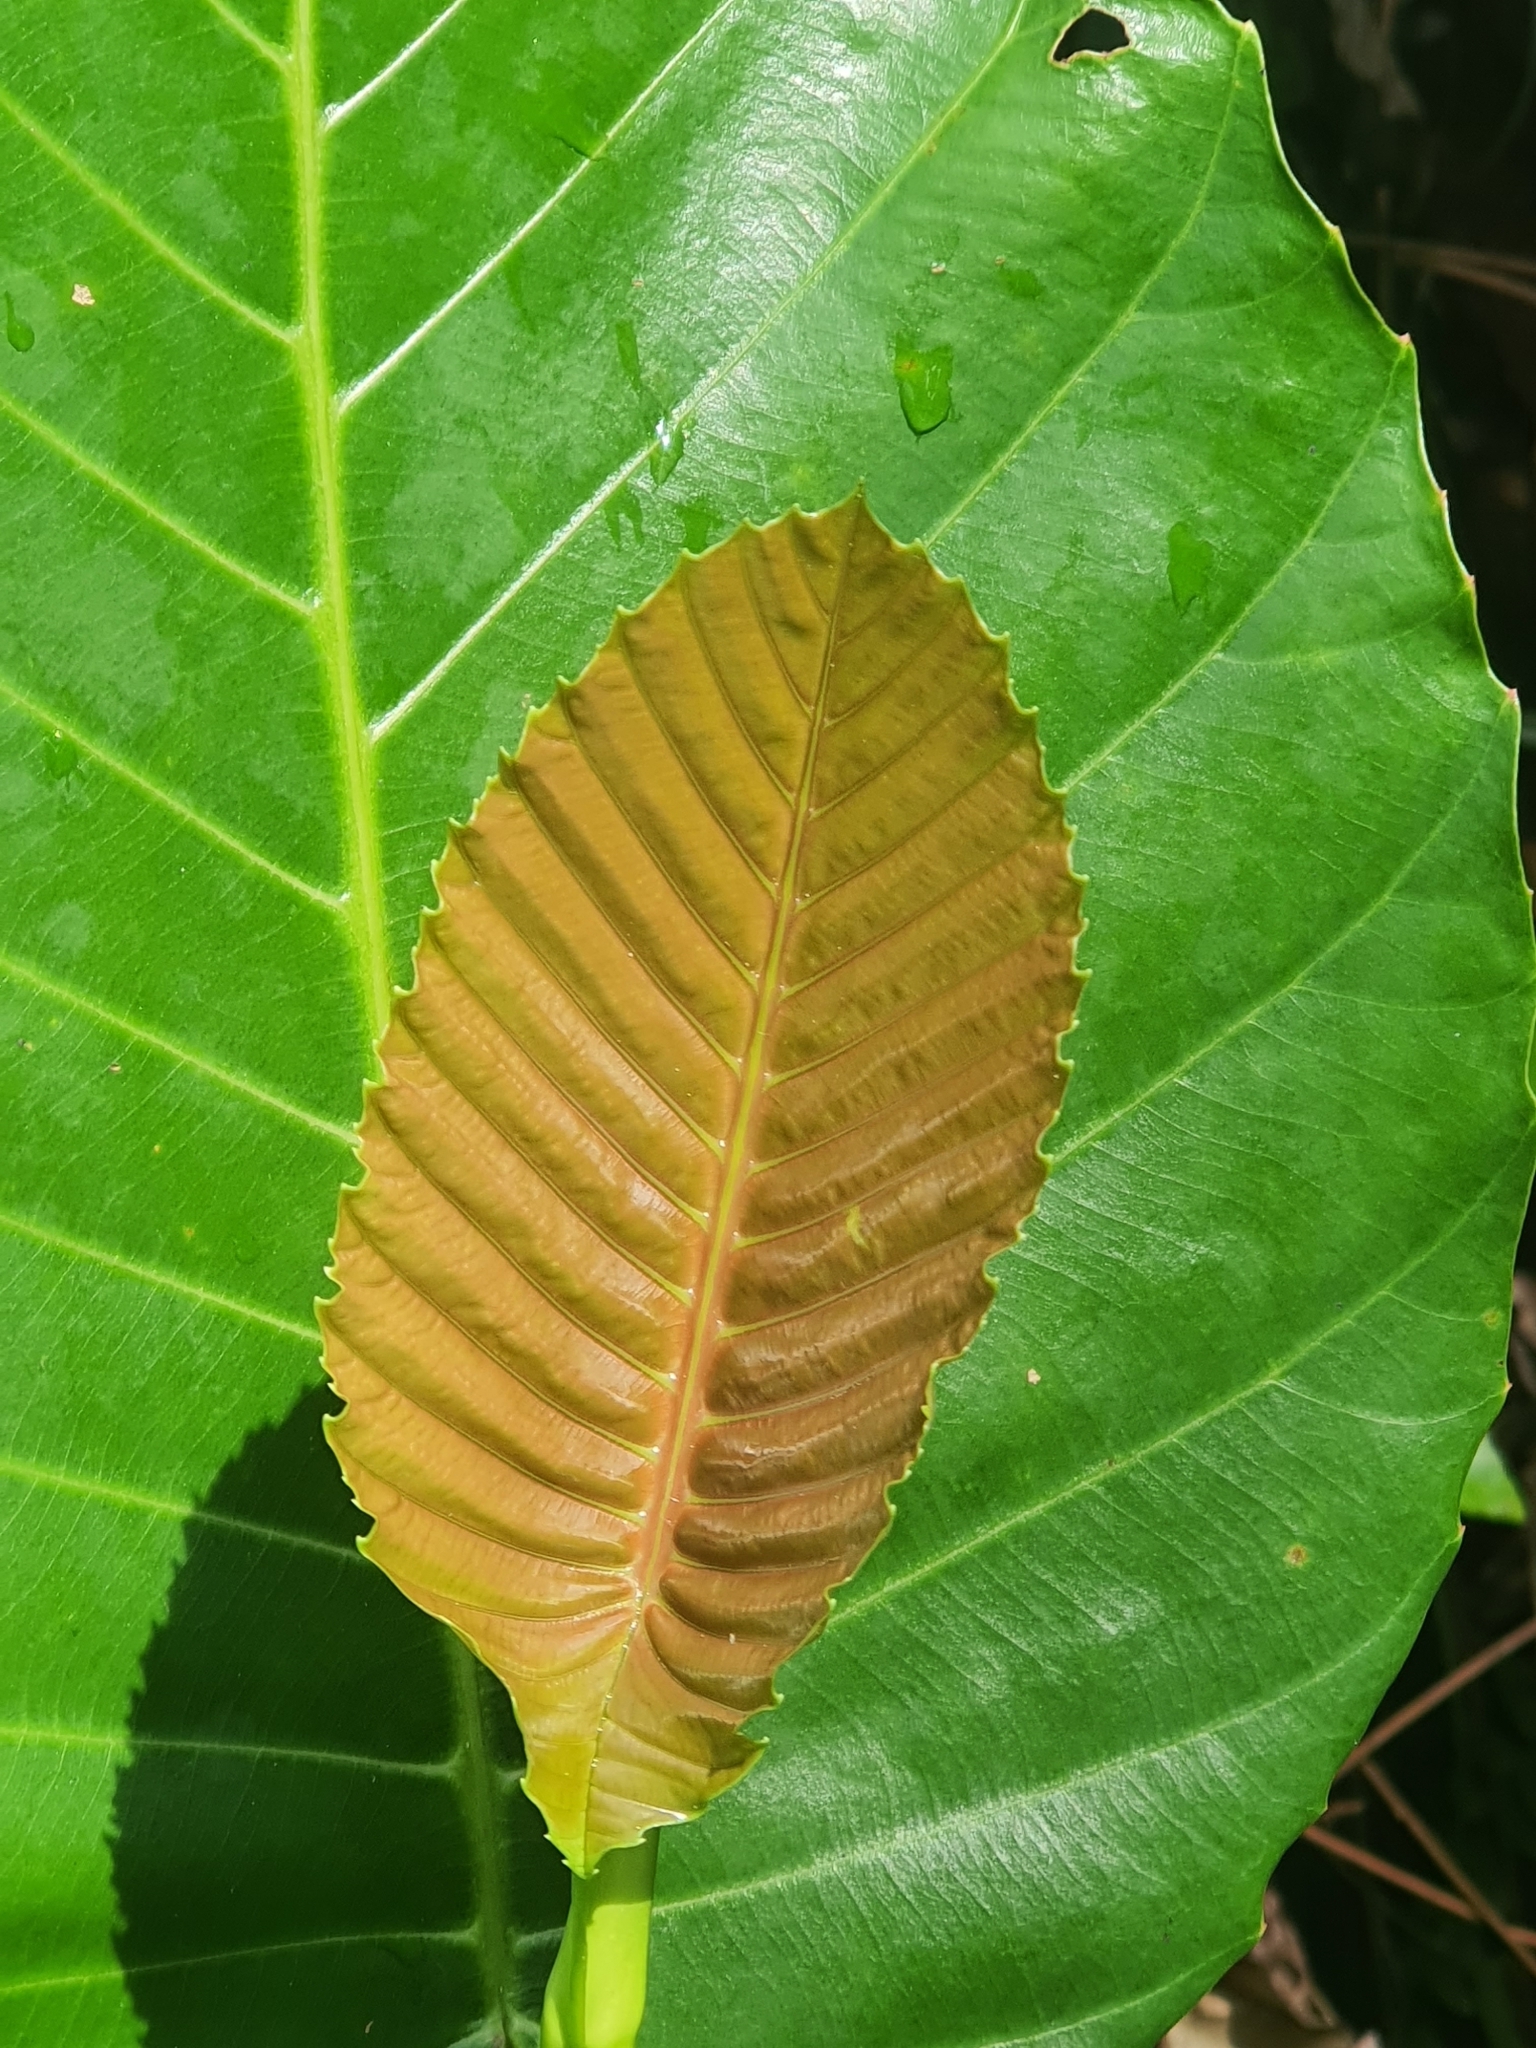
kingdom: Plantae
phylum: Tracheophyta
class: Magnoliopsida
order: Dilleniales
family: Dilleniaceae
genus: Dillenia
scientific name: Dillenia suffruticosa
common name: Shrubby dillenia
